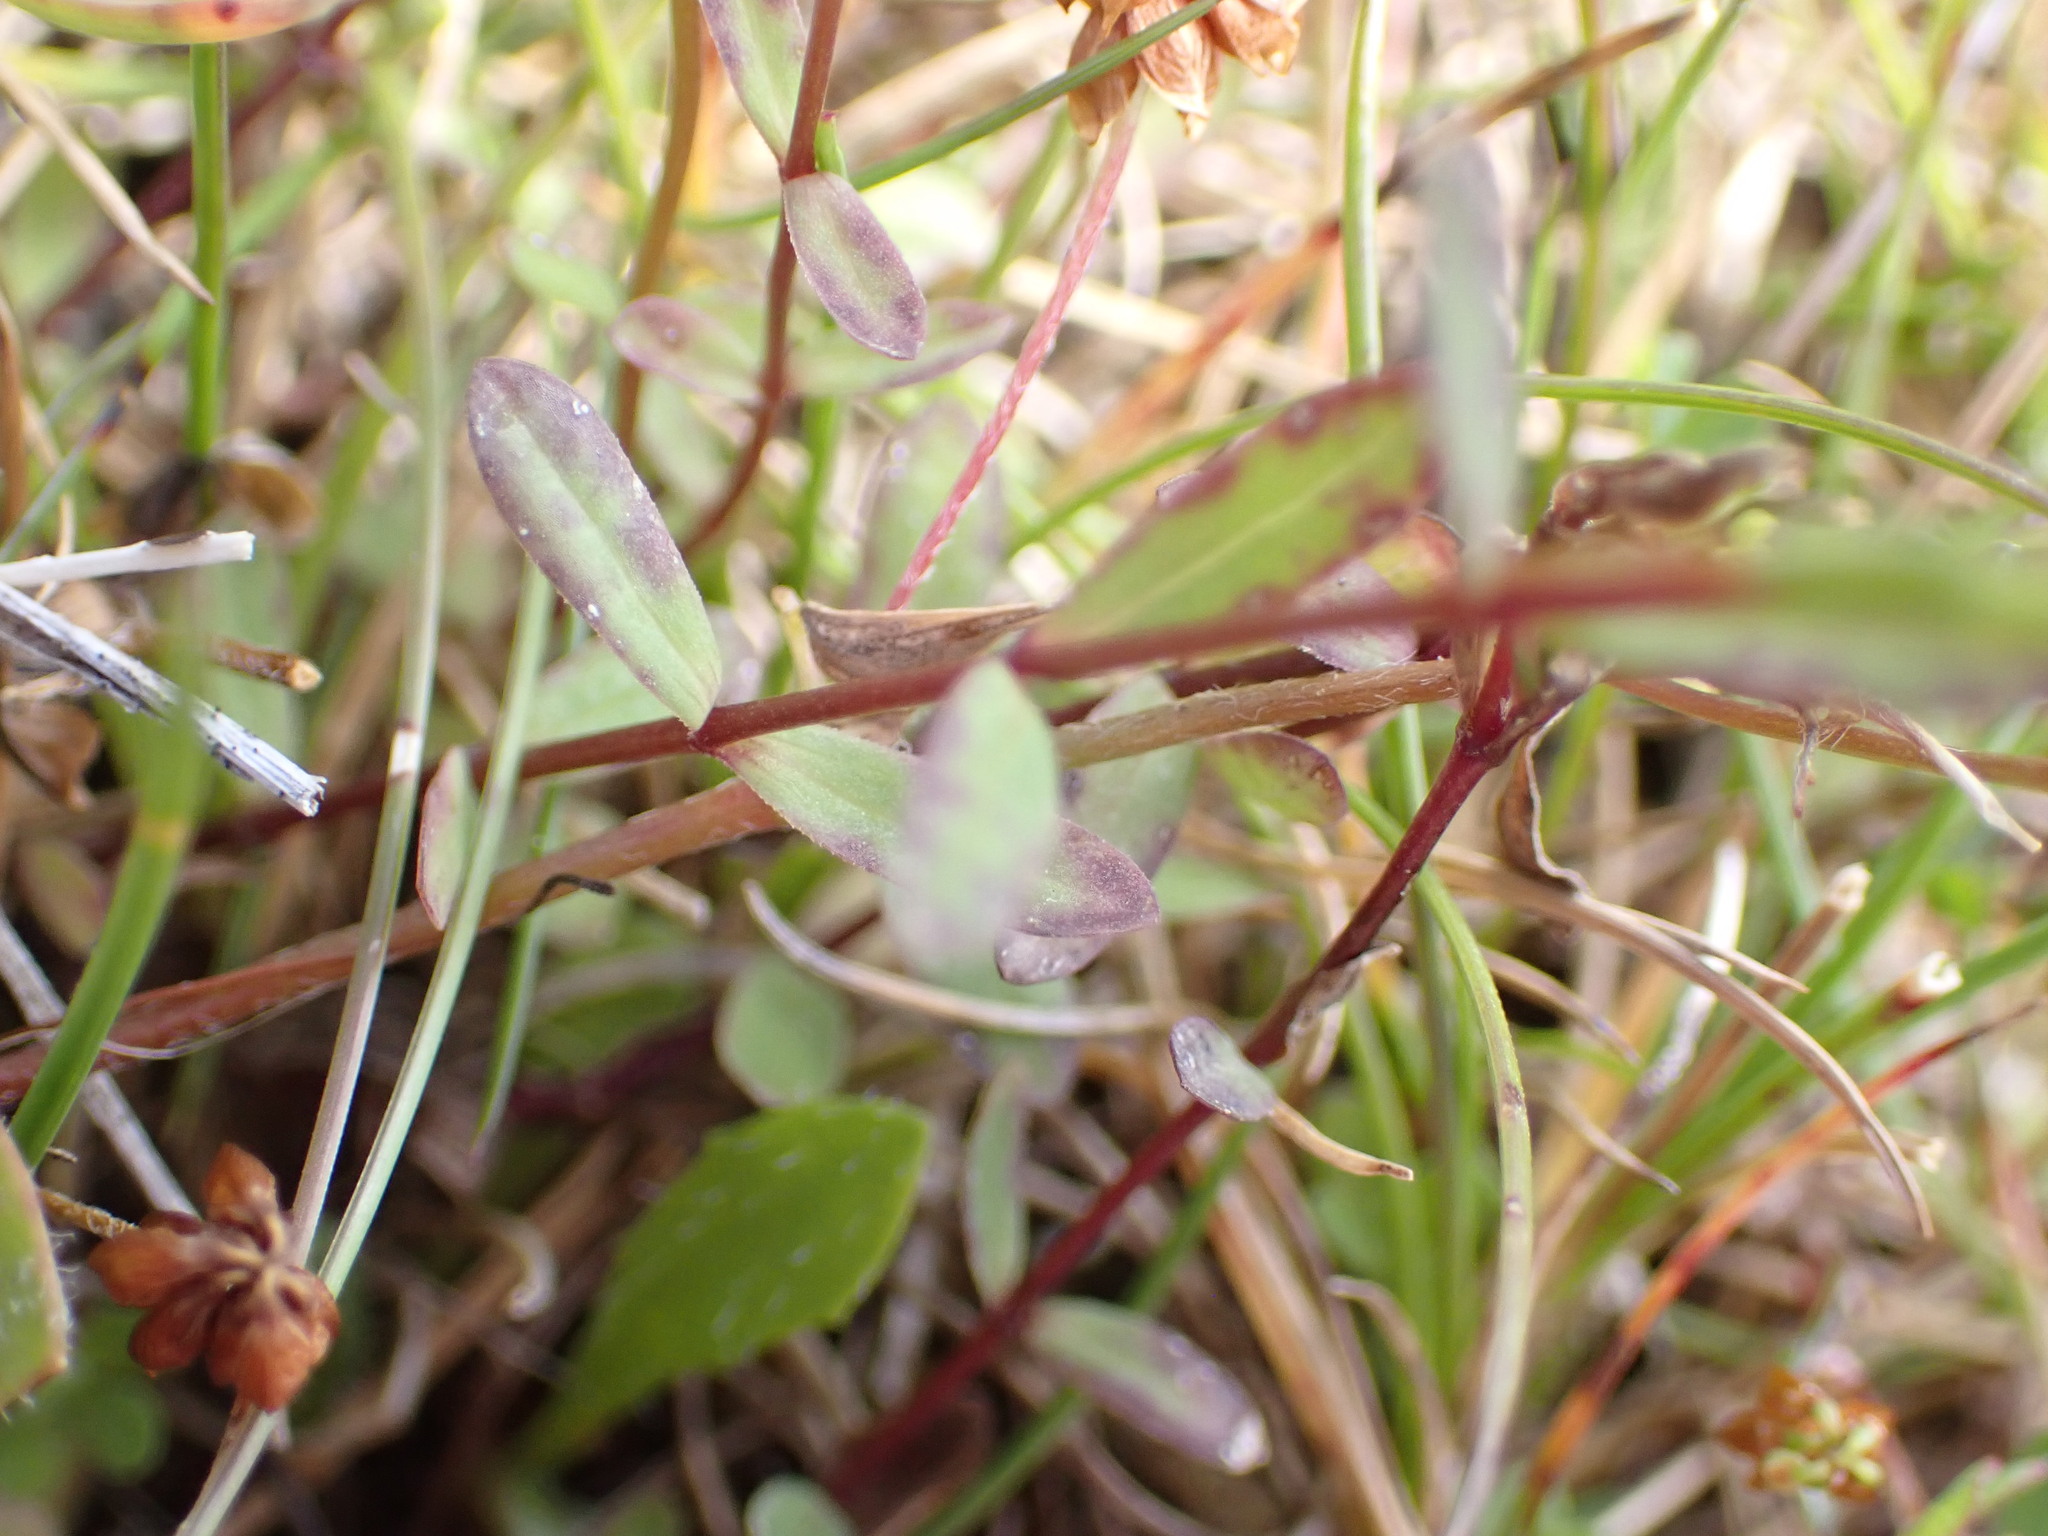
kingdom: Plantae
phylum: Tracheophyta
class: Magnoliopsida
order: Malpighiales
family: Linaceae
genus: Linum
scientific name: Linum catharticum
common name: Fairy flax
